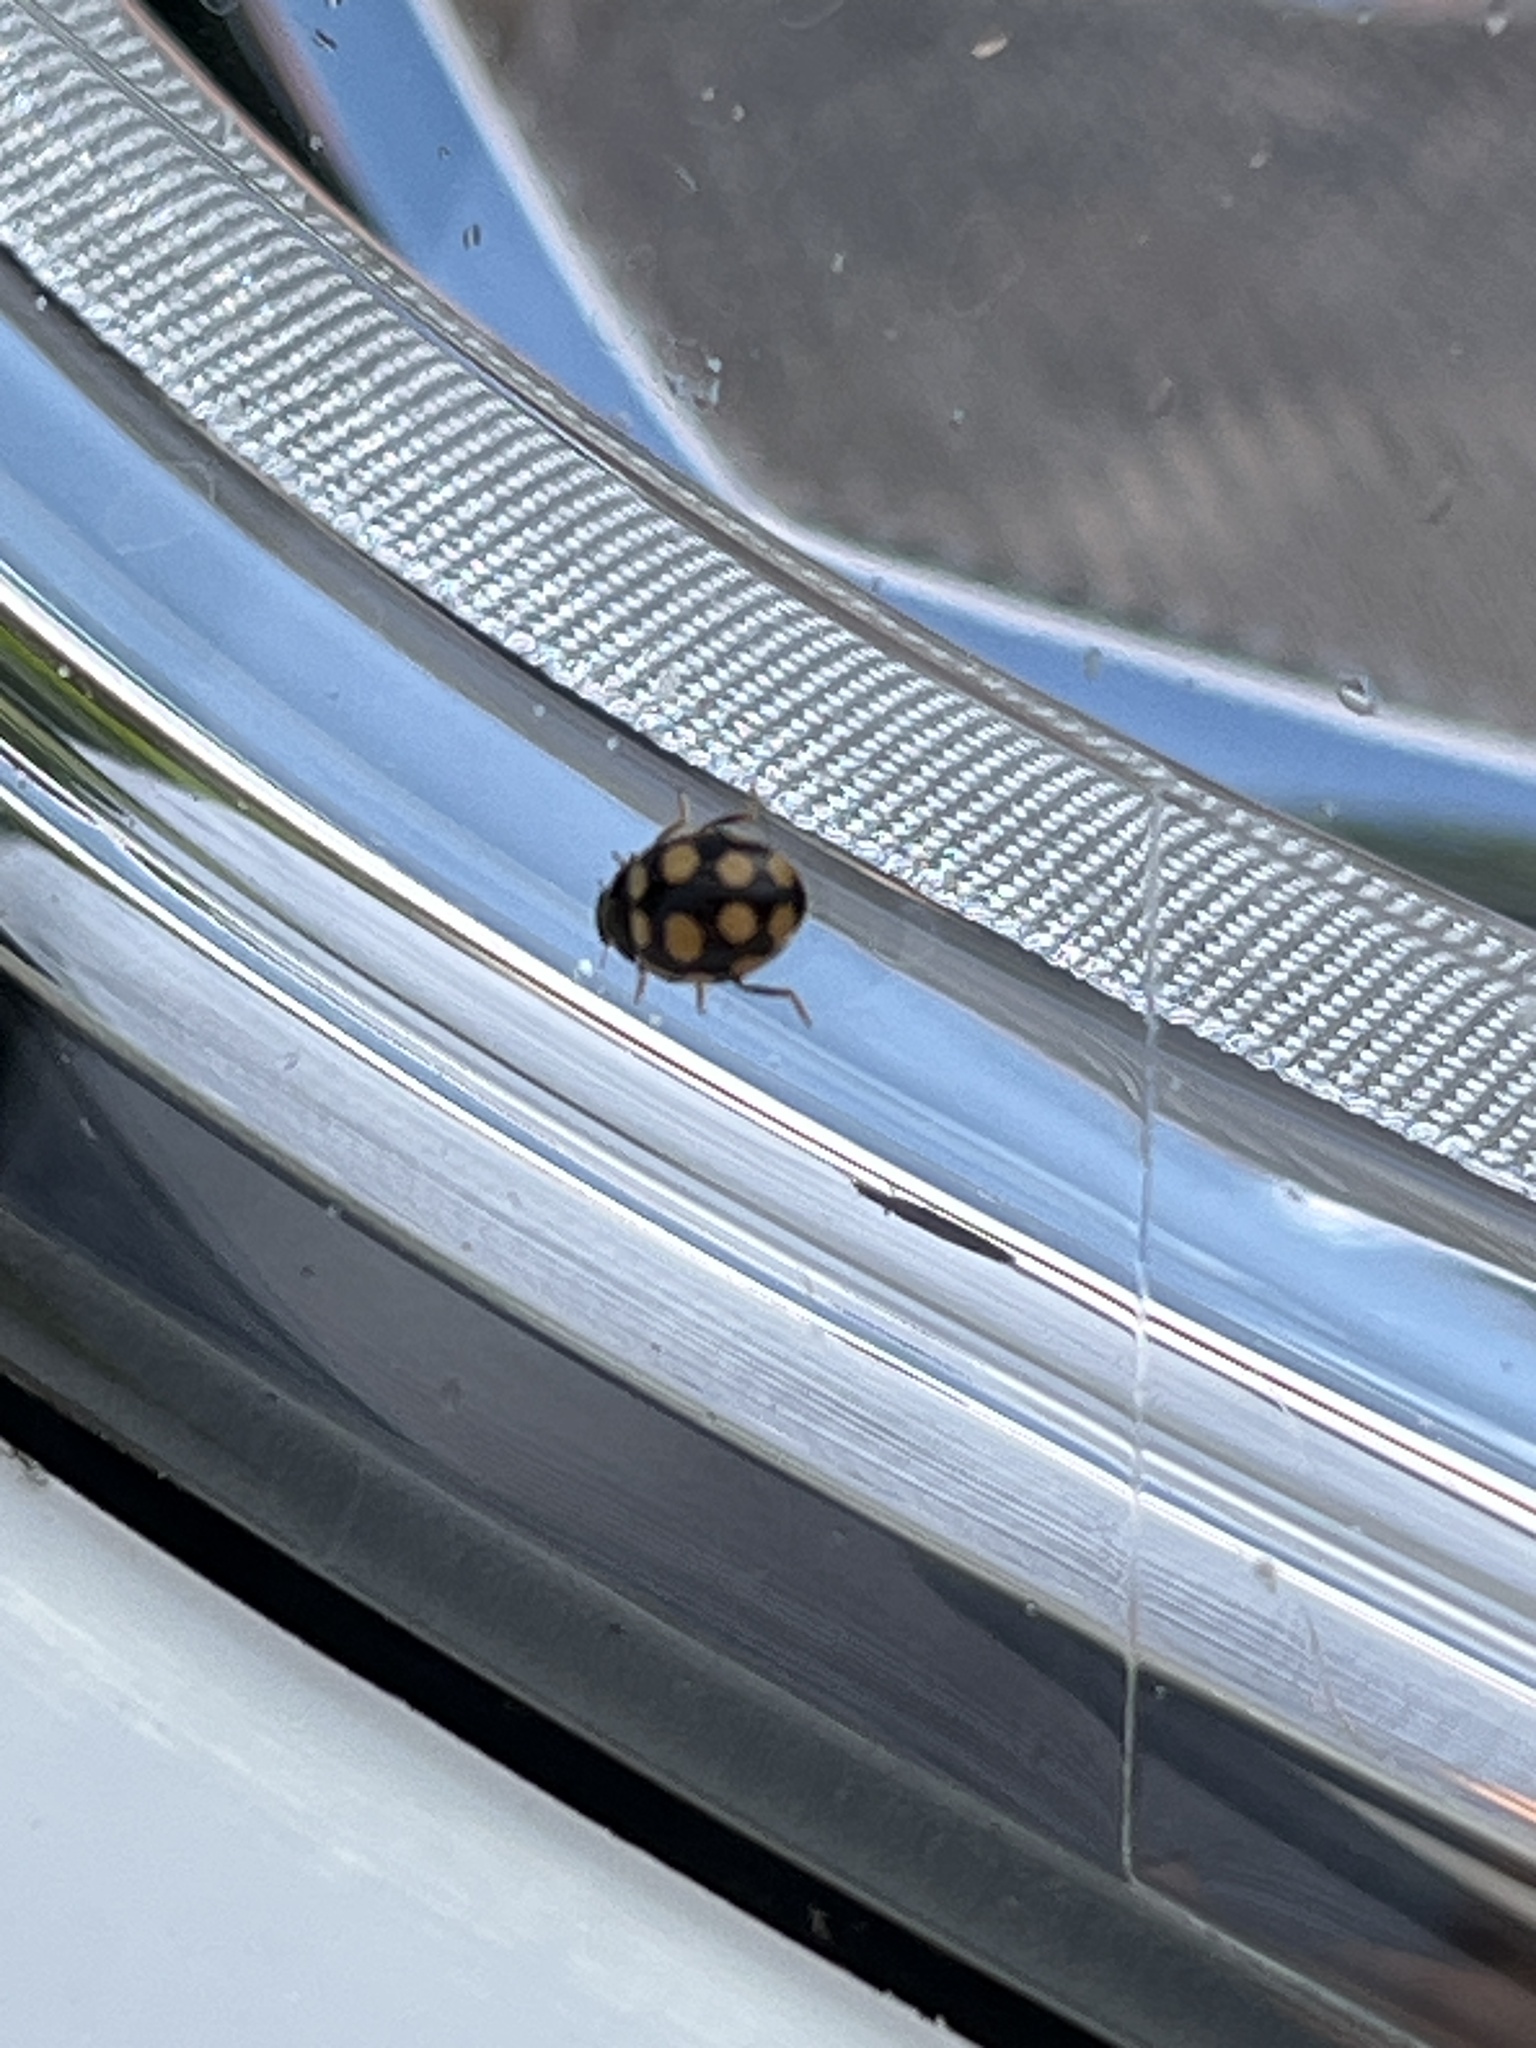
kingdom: Animalia
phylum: Arthropoda
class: Insecta
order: Coleoptera
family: Coccinellidae
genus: Coccinula
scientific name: Coccinula quatuordecimpustulata
